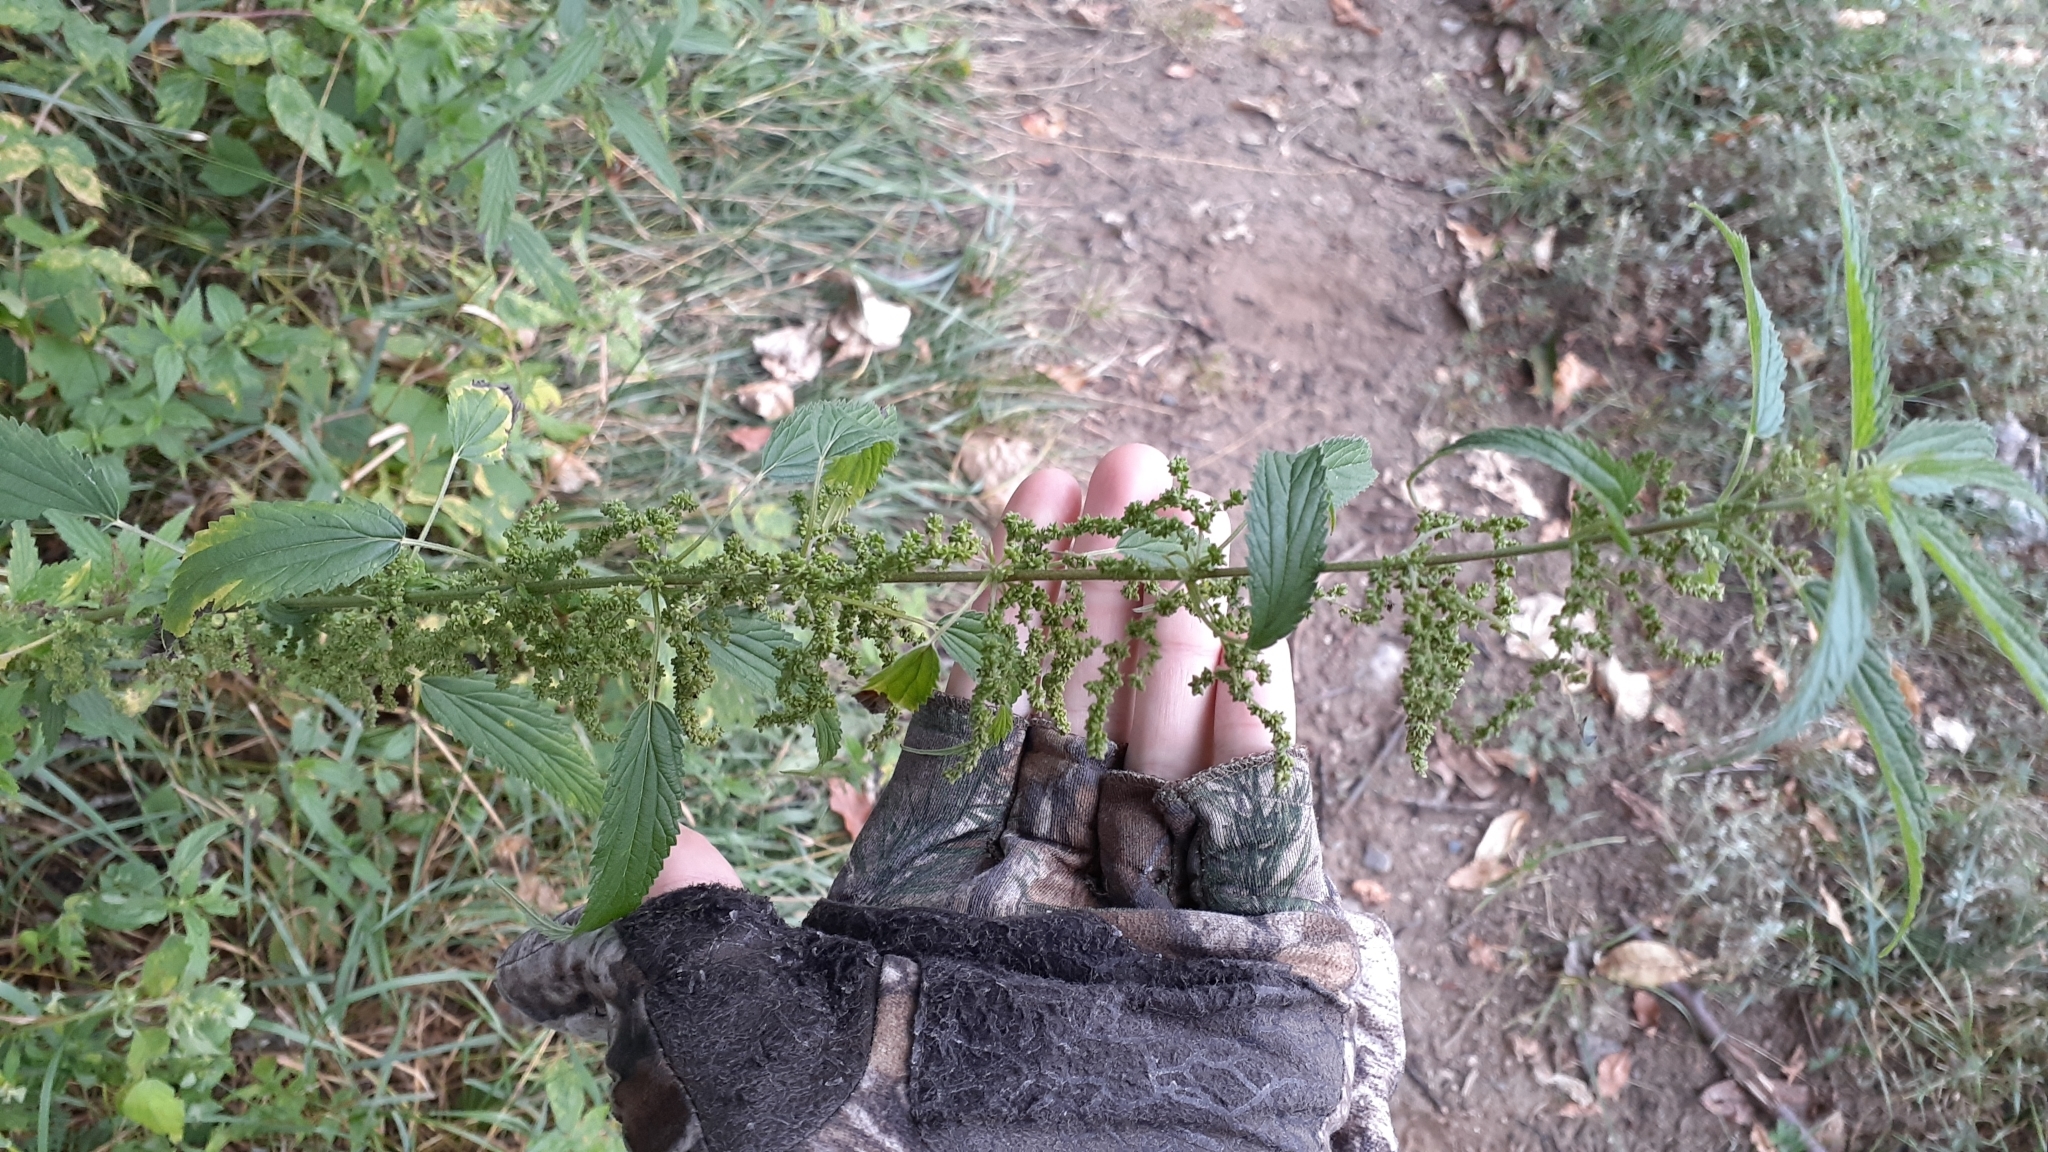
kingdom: Plantae
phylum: Tracheophyta
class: Magnoliopsida
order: Rosales
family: Urticaceae
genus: Urtica
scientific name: Urtica gracilis
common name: Slender stinging nettle
